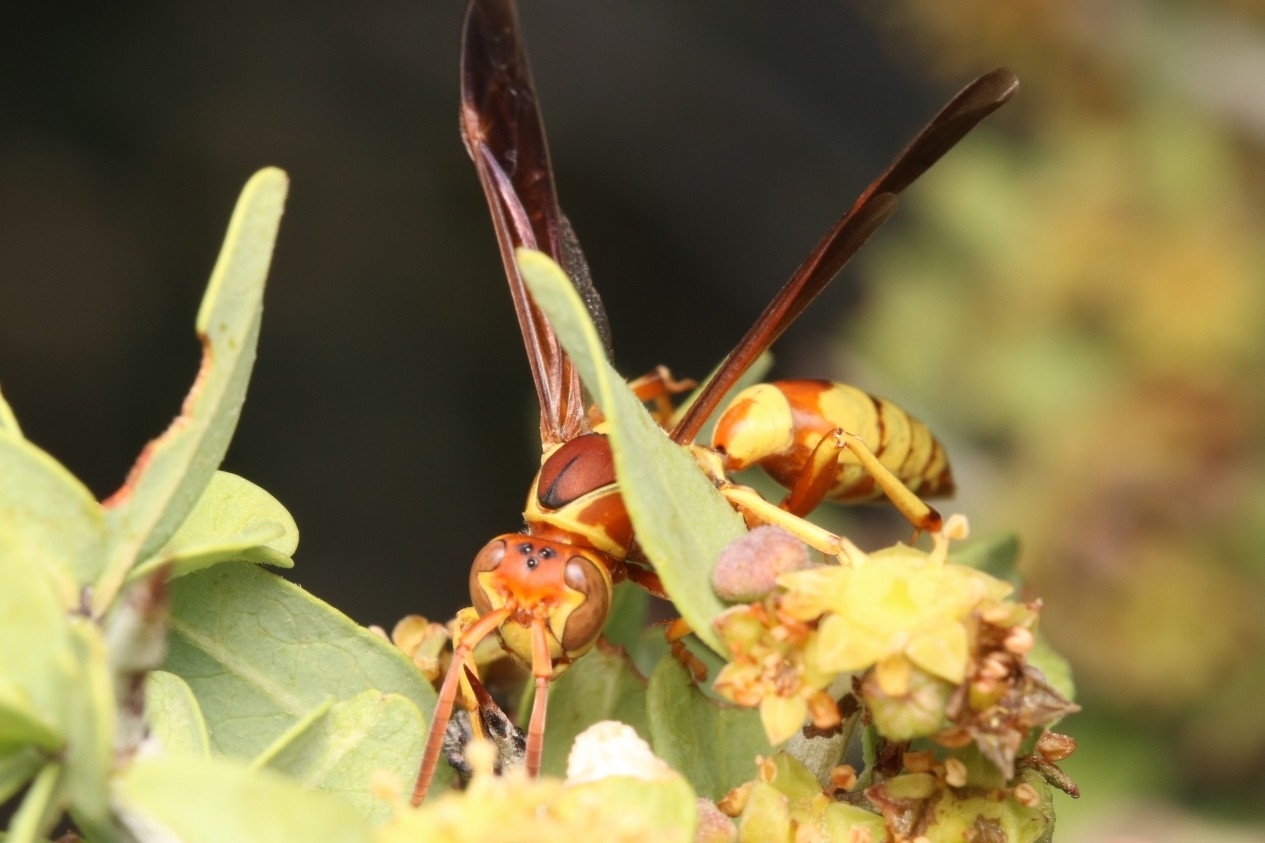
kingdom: Animalia
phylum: Arthropoda
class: Insecta
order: Hymenoptera
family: Eumenidae
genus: Polistes
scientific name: Polistes dorsalis
